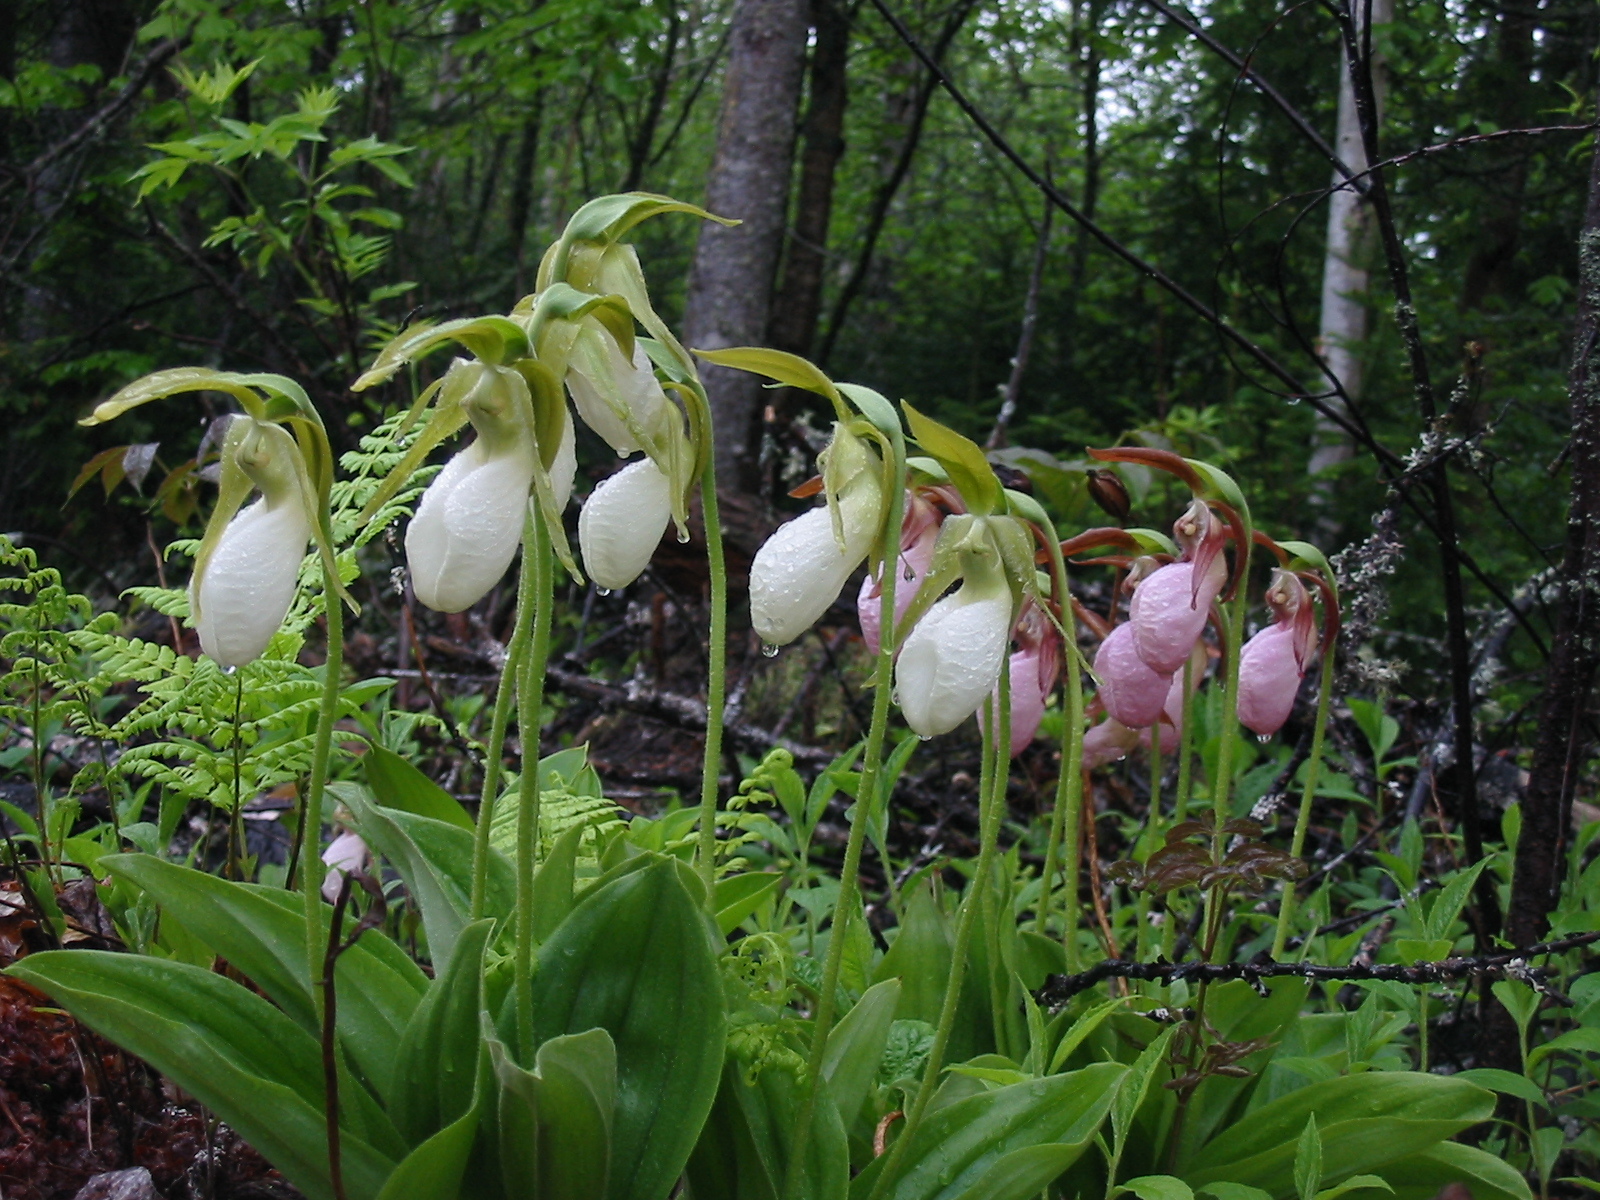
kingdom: Plantae
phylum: Tracheophyta
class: Liliopsida
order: Asparagales
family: Orchidaceae
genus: Cypripedium
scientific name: Cypripedium acaule
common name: Pink lady's-slipper
